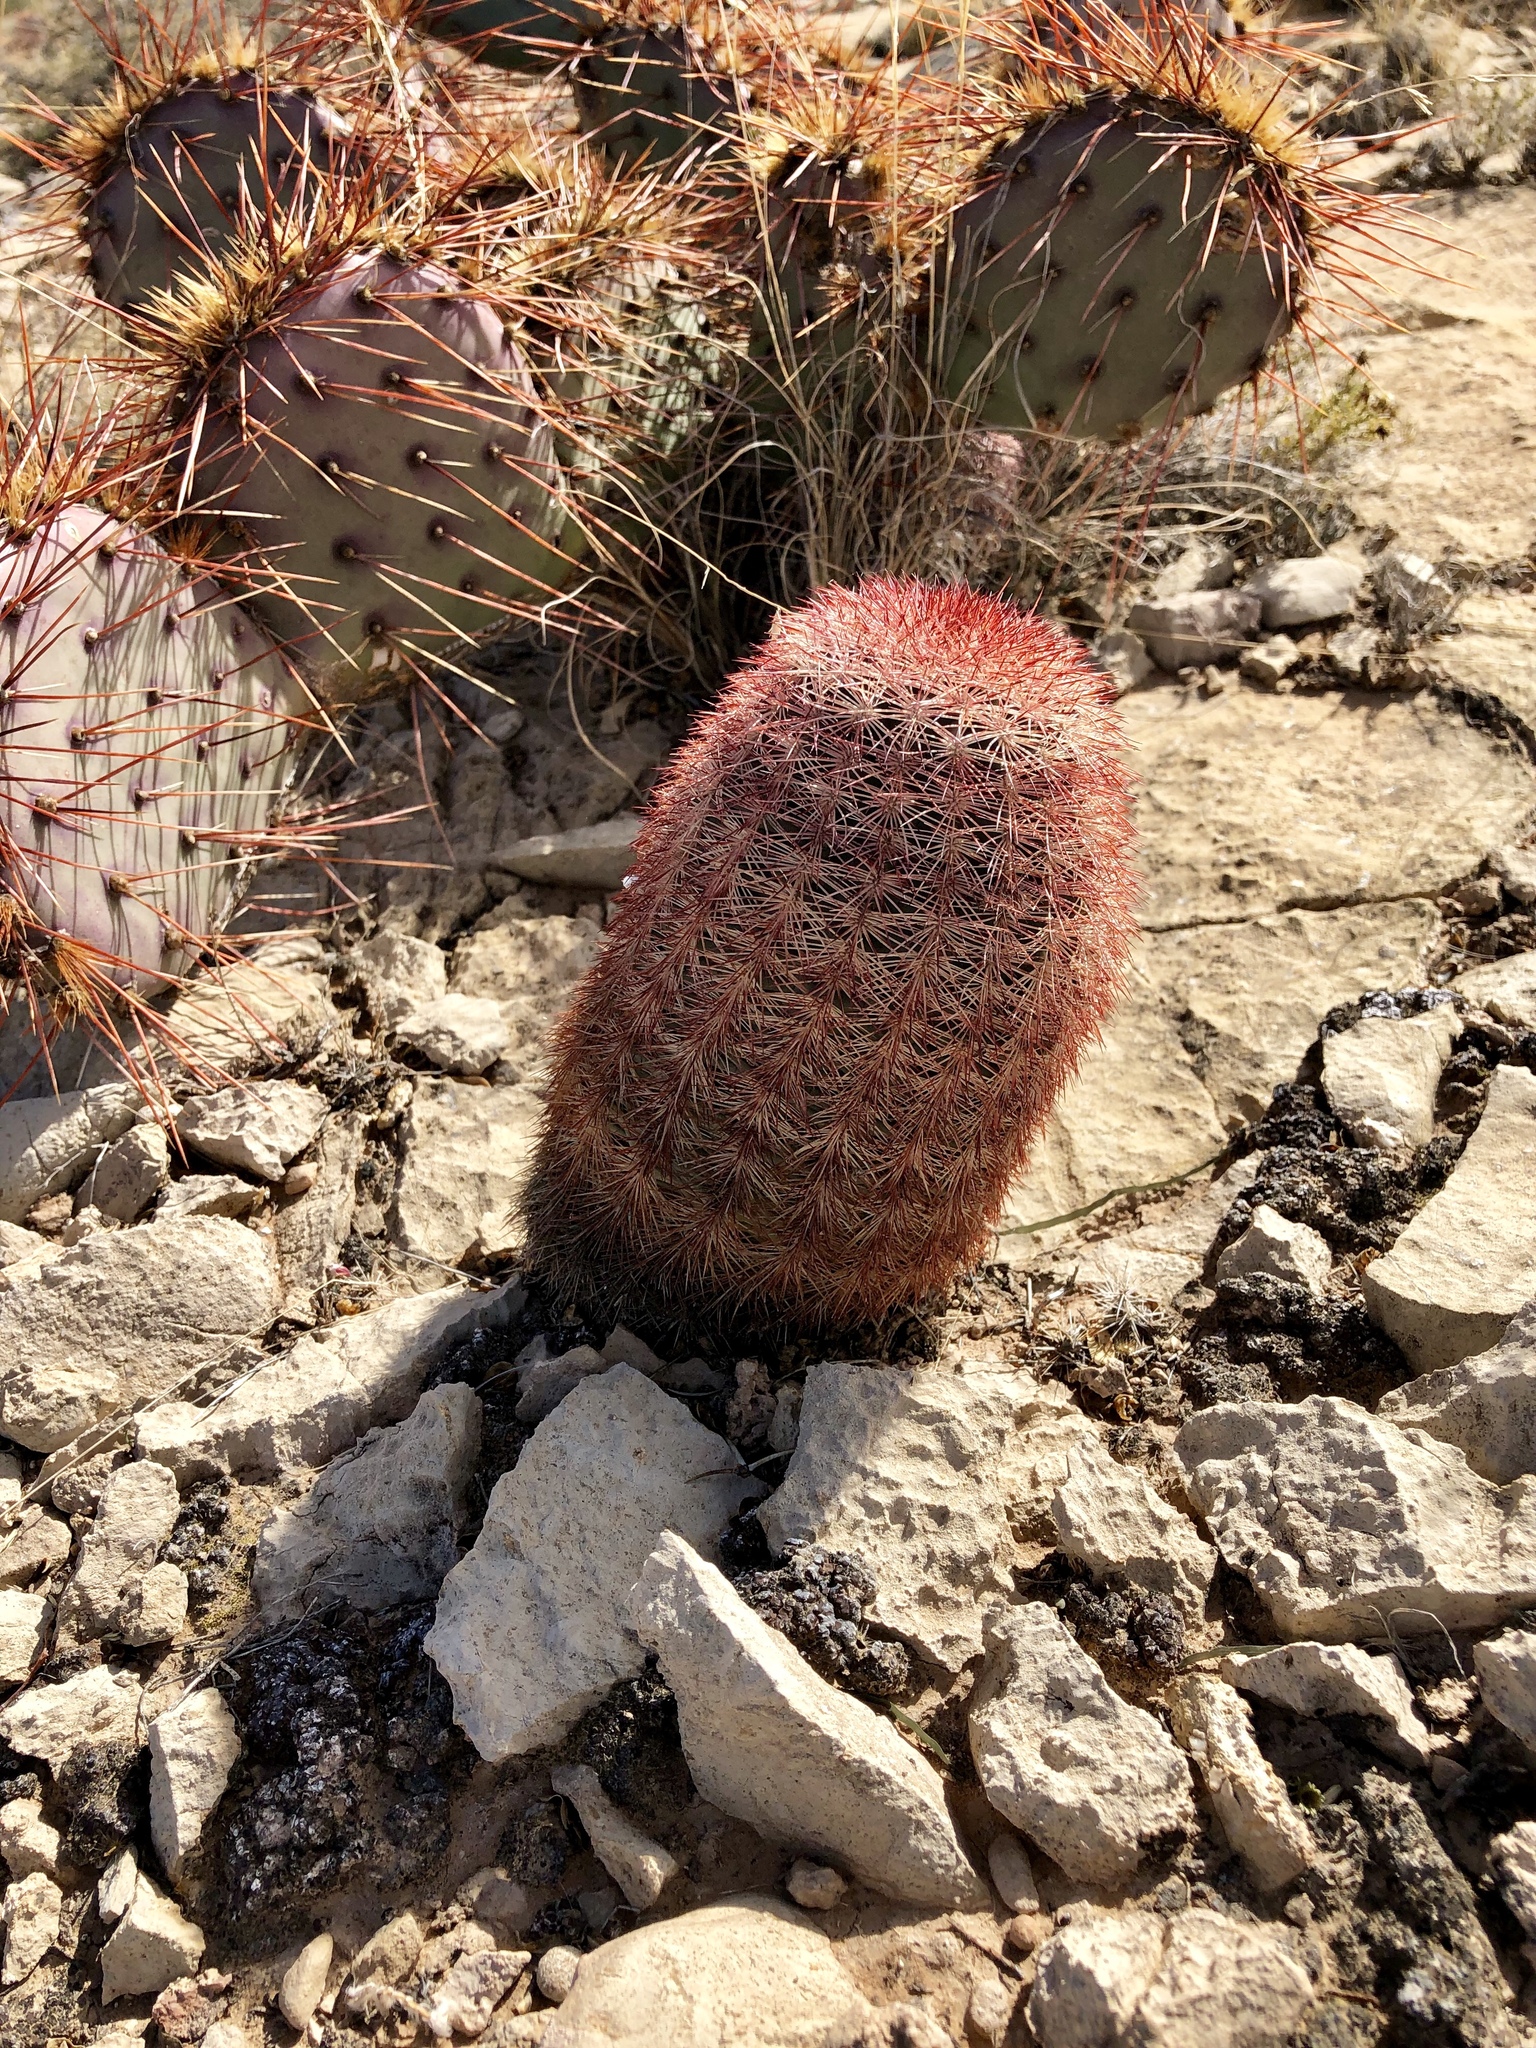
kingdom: Plantae
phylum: Tracheophyta
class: Magnoliopsida
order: Caryophyllales
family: Cactaceae
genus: Echinocereus
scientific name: Echinocereus dasyacanthus
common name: Spiny hedgehog cactus
